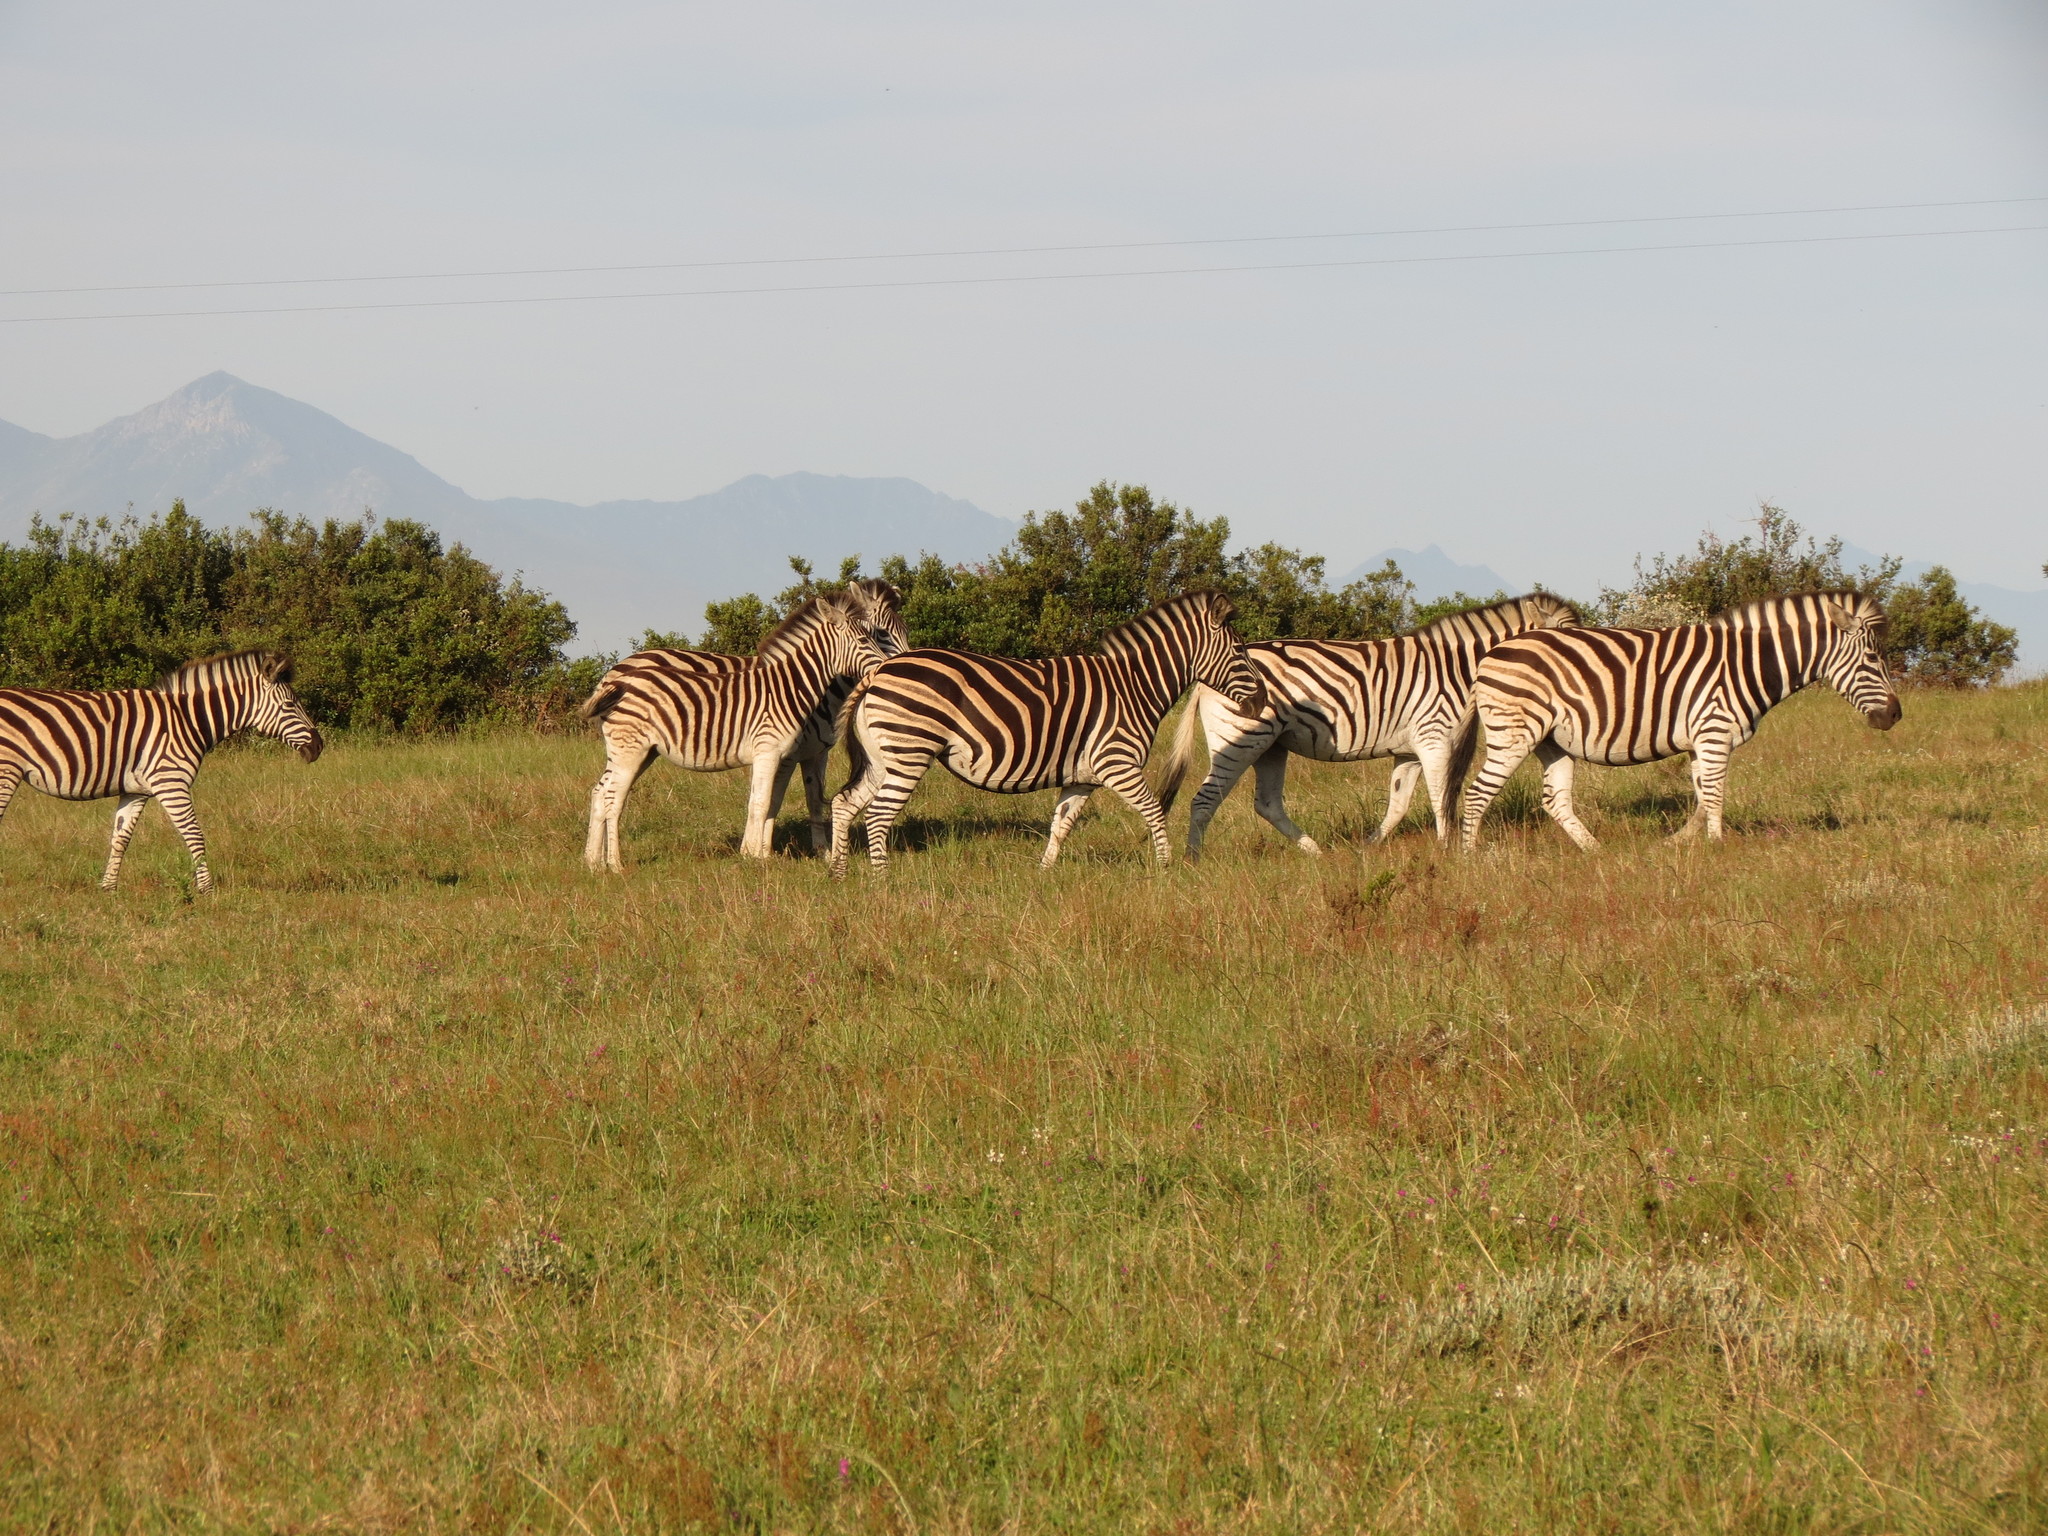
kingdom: Animalia
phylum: Chordata
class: Mammalia
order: Perissodactyla
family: Equidae
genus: Equus
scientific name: Equus quagga
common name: Plains zebra
